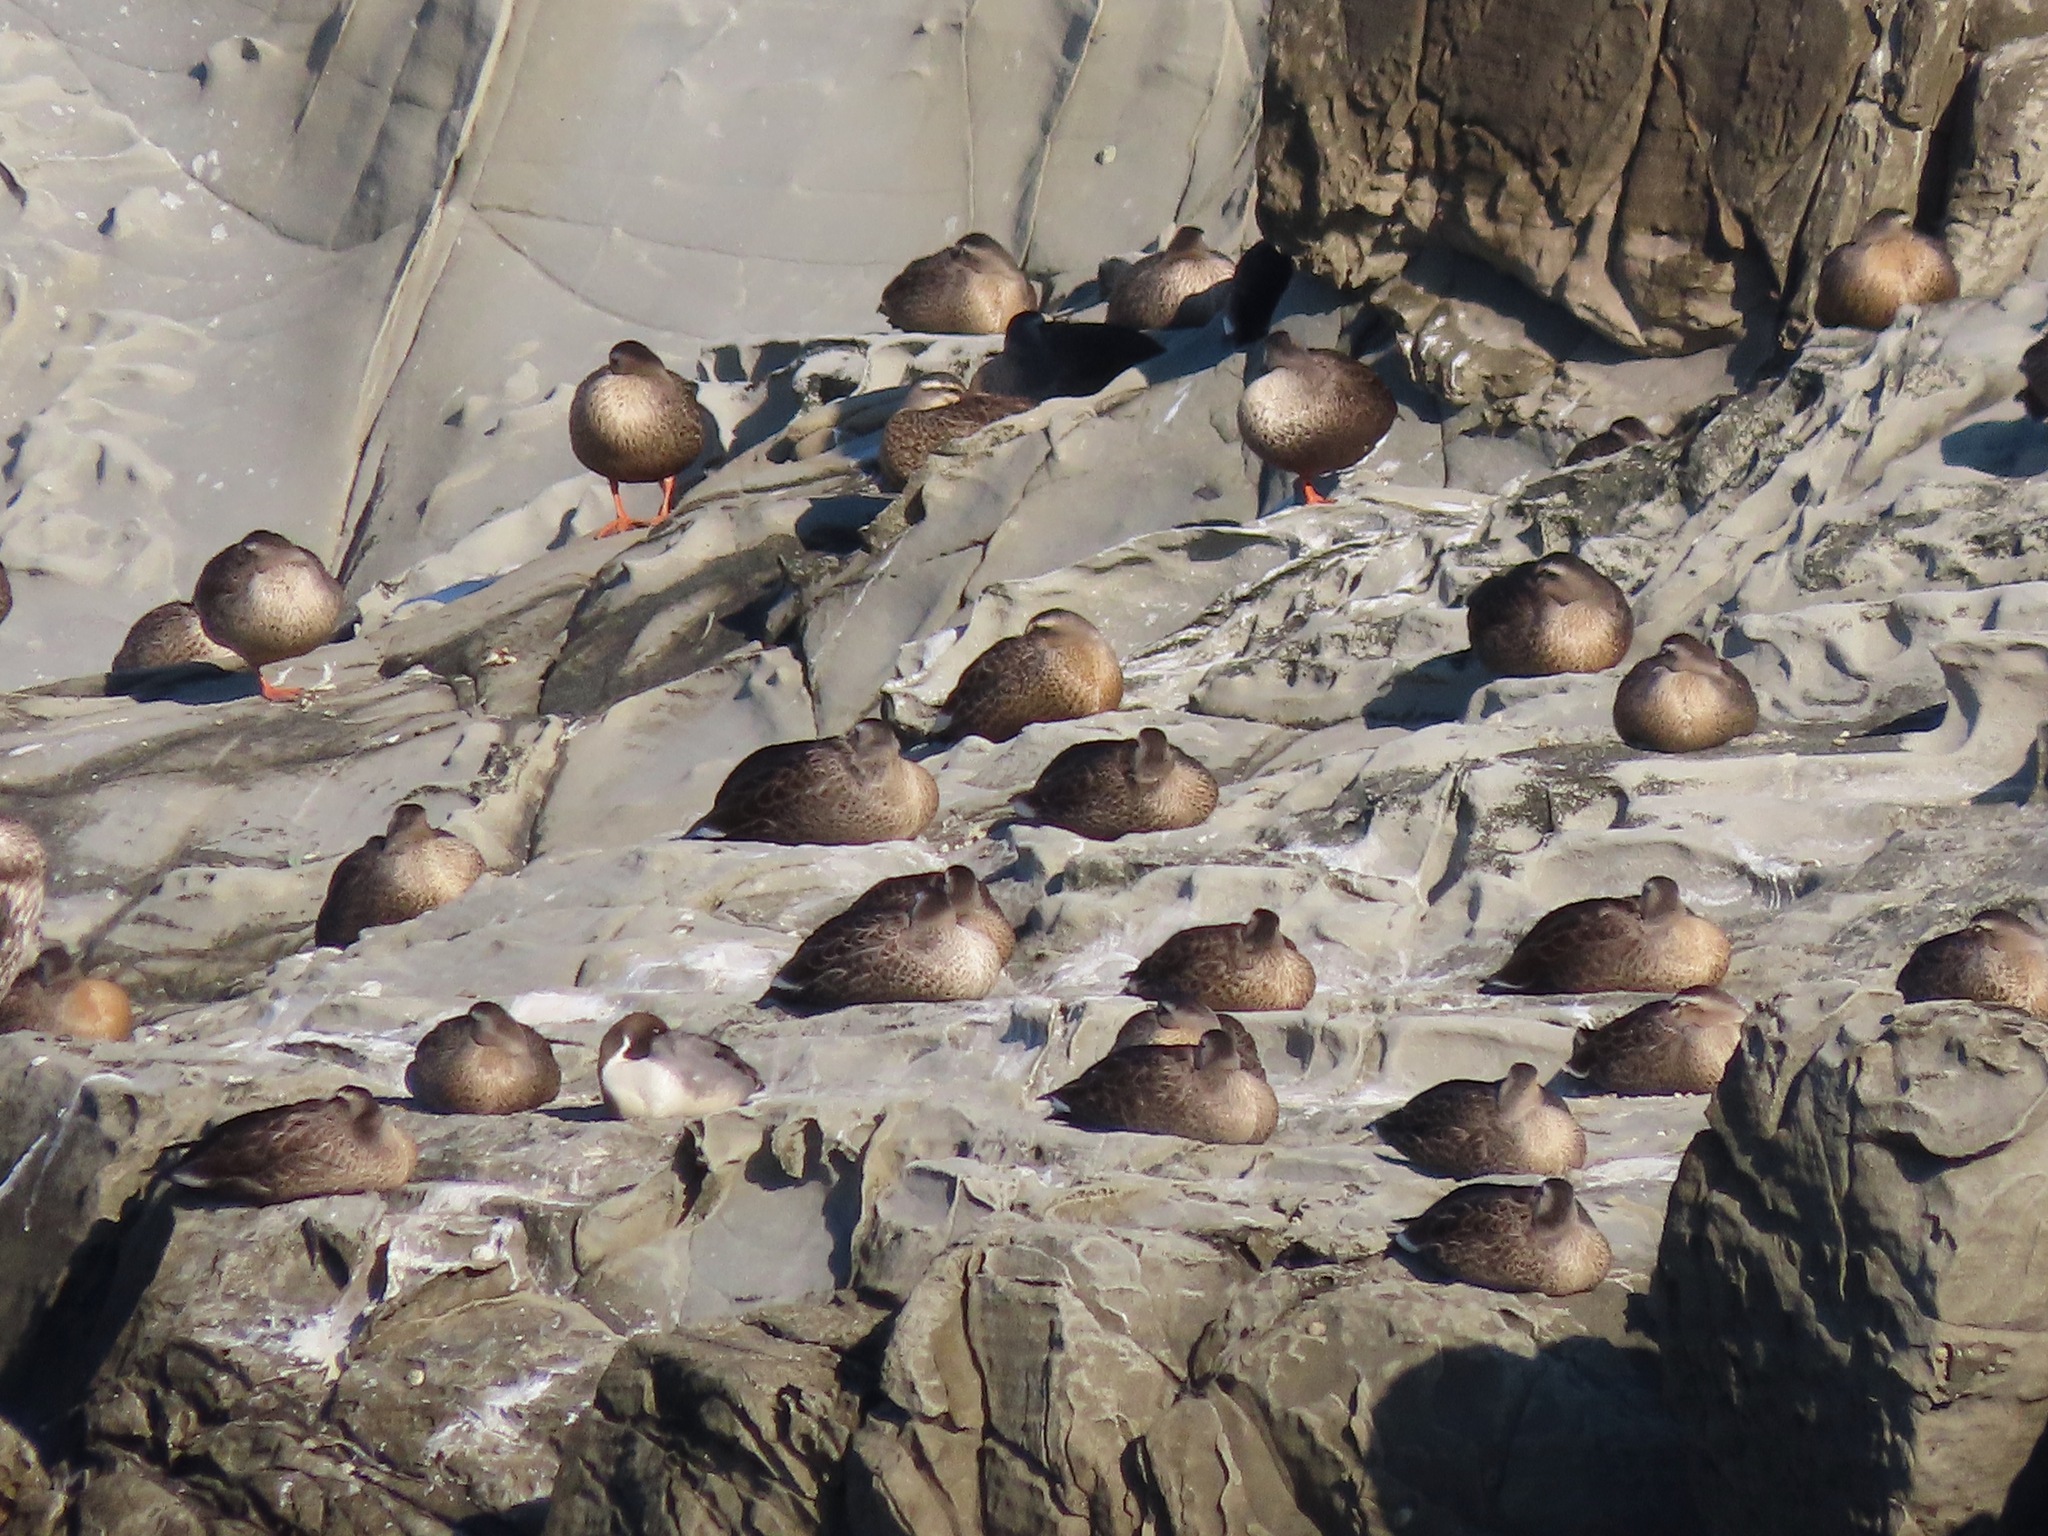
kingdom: Animalia
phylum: Chordata
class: Aves
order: Anseriformes
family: Anatidae
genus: Anas
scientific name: Anas zonorhyncha
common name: Eastern spot-billed duck
